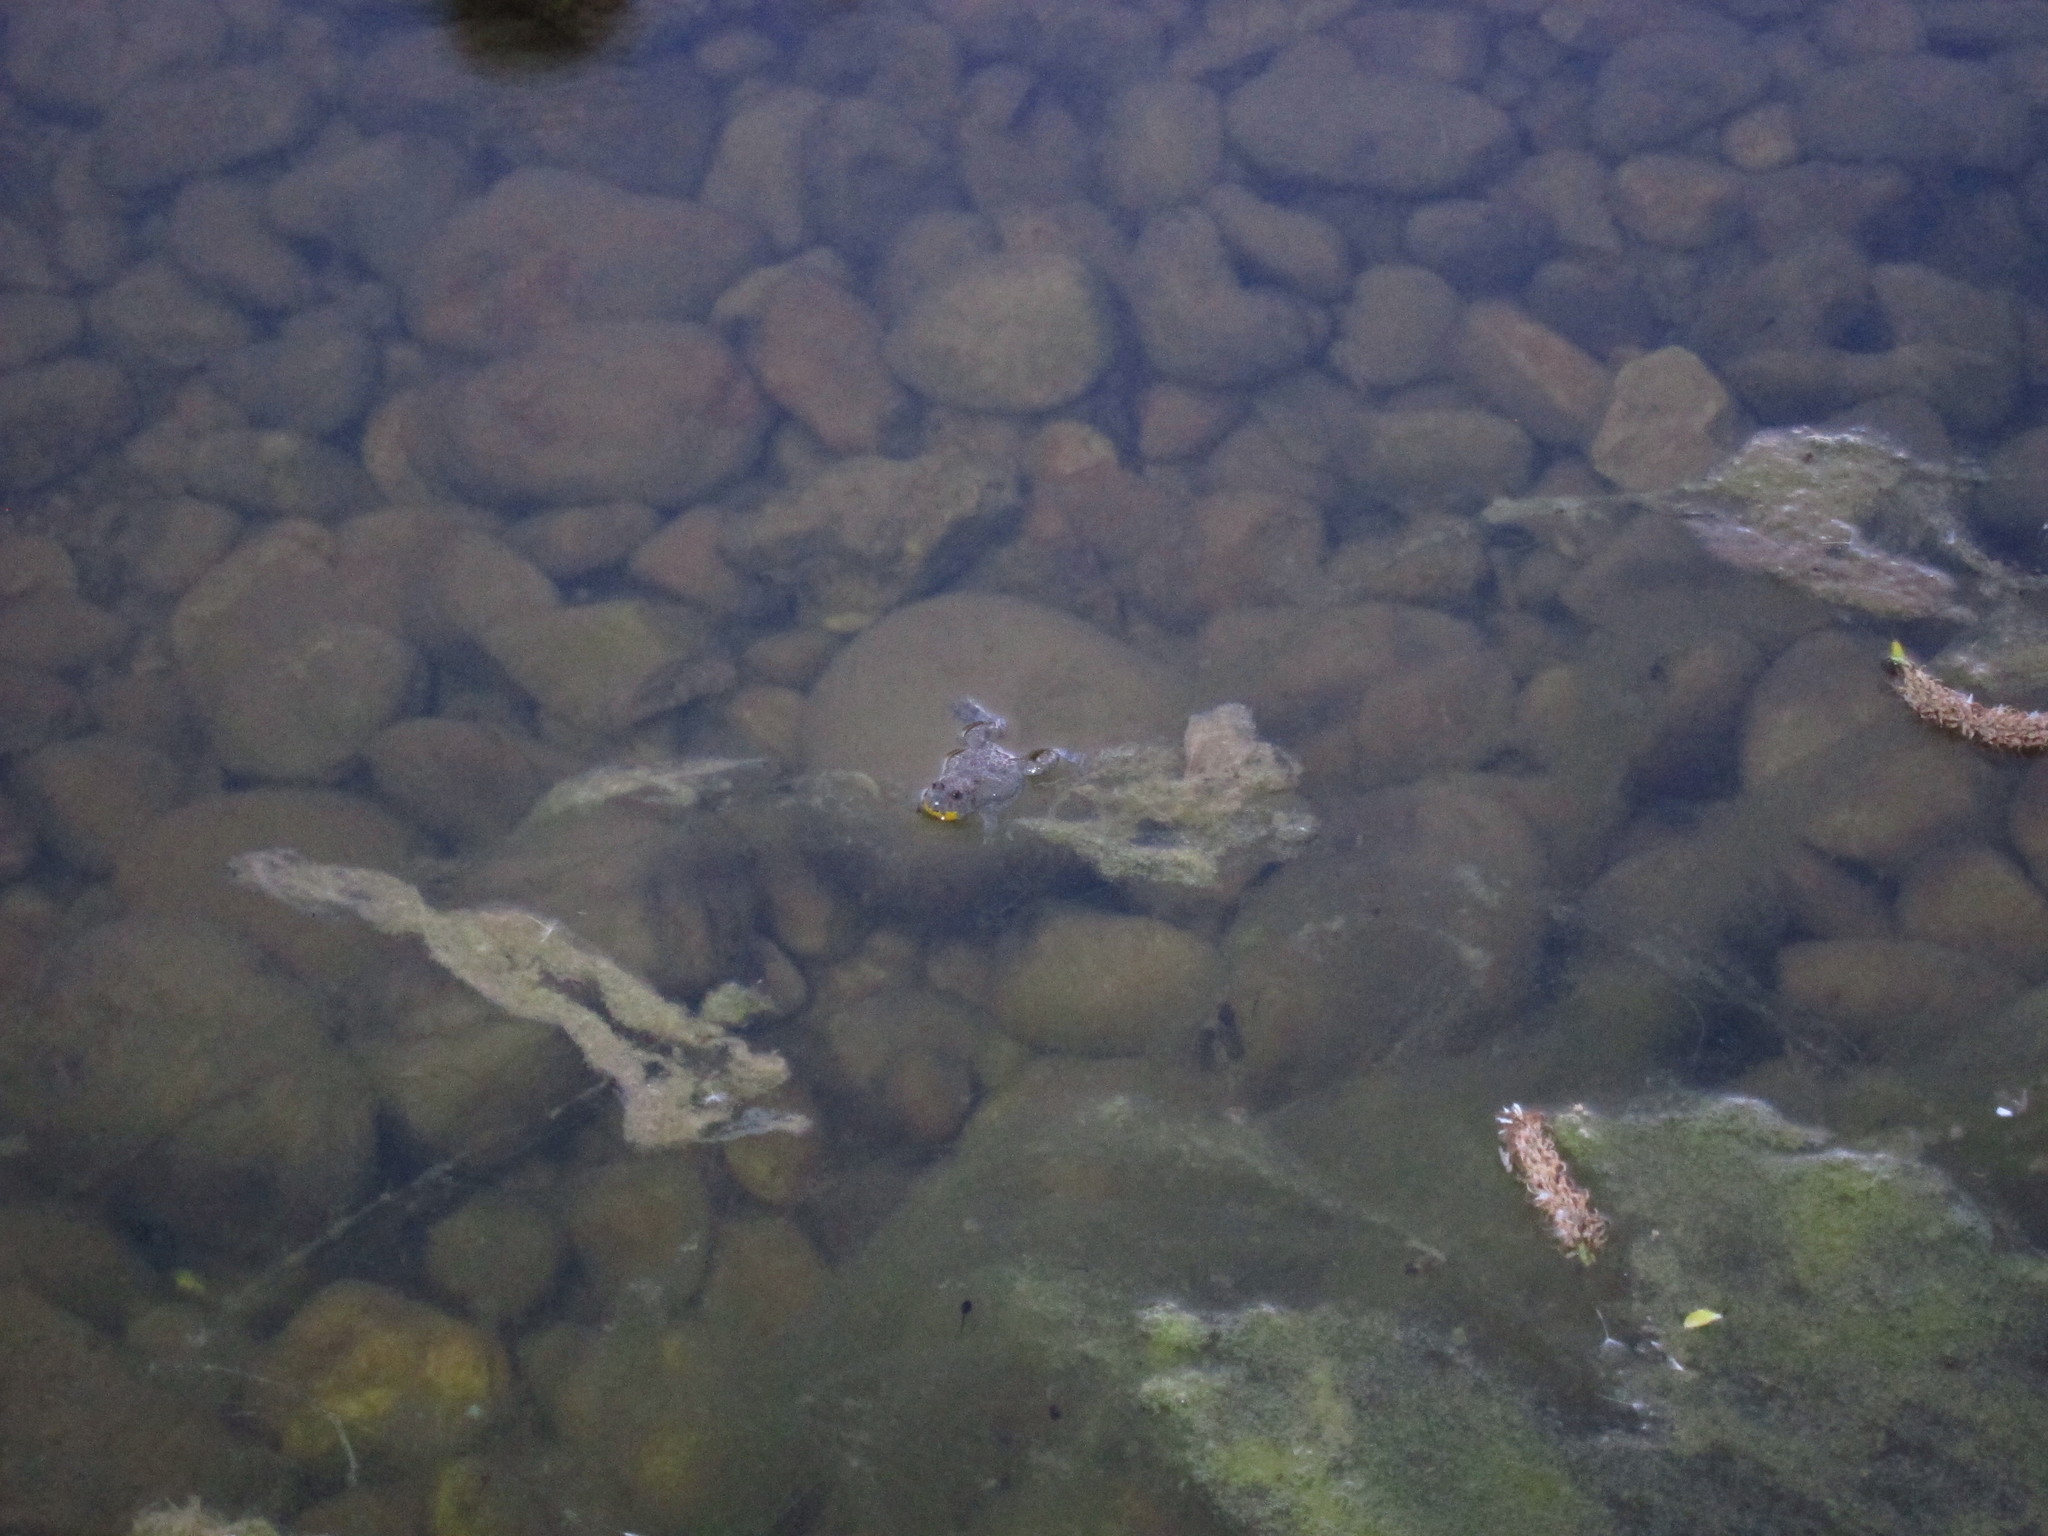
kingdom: Animalia
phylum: Chordata
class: Amphibia
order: Anura
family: Bombinatoridae
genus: Bombina
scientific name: Bombina variegata
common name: Yellow-bellied toad
